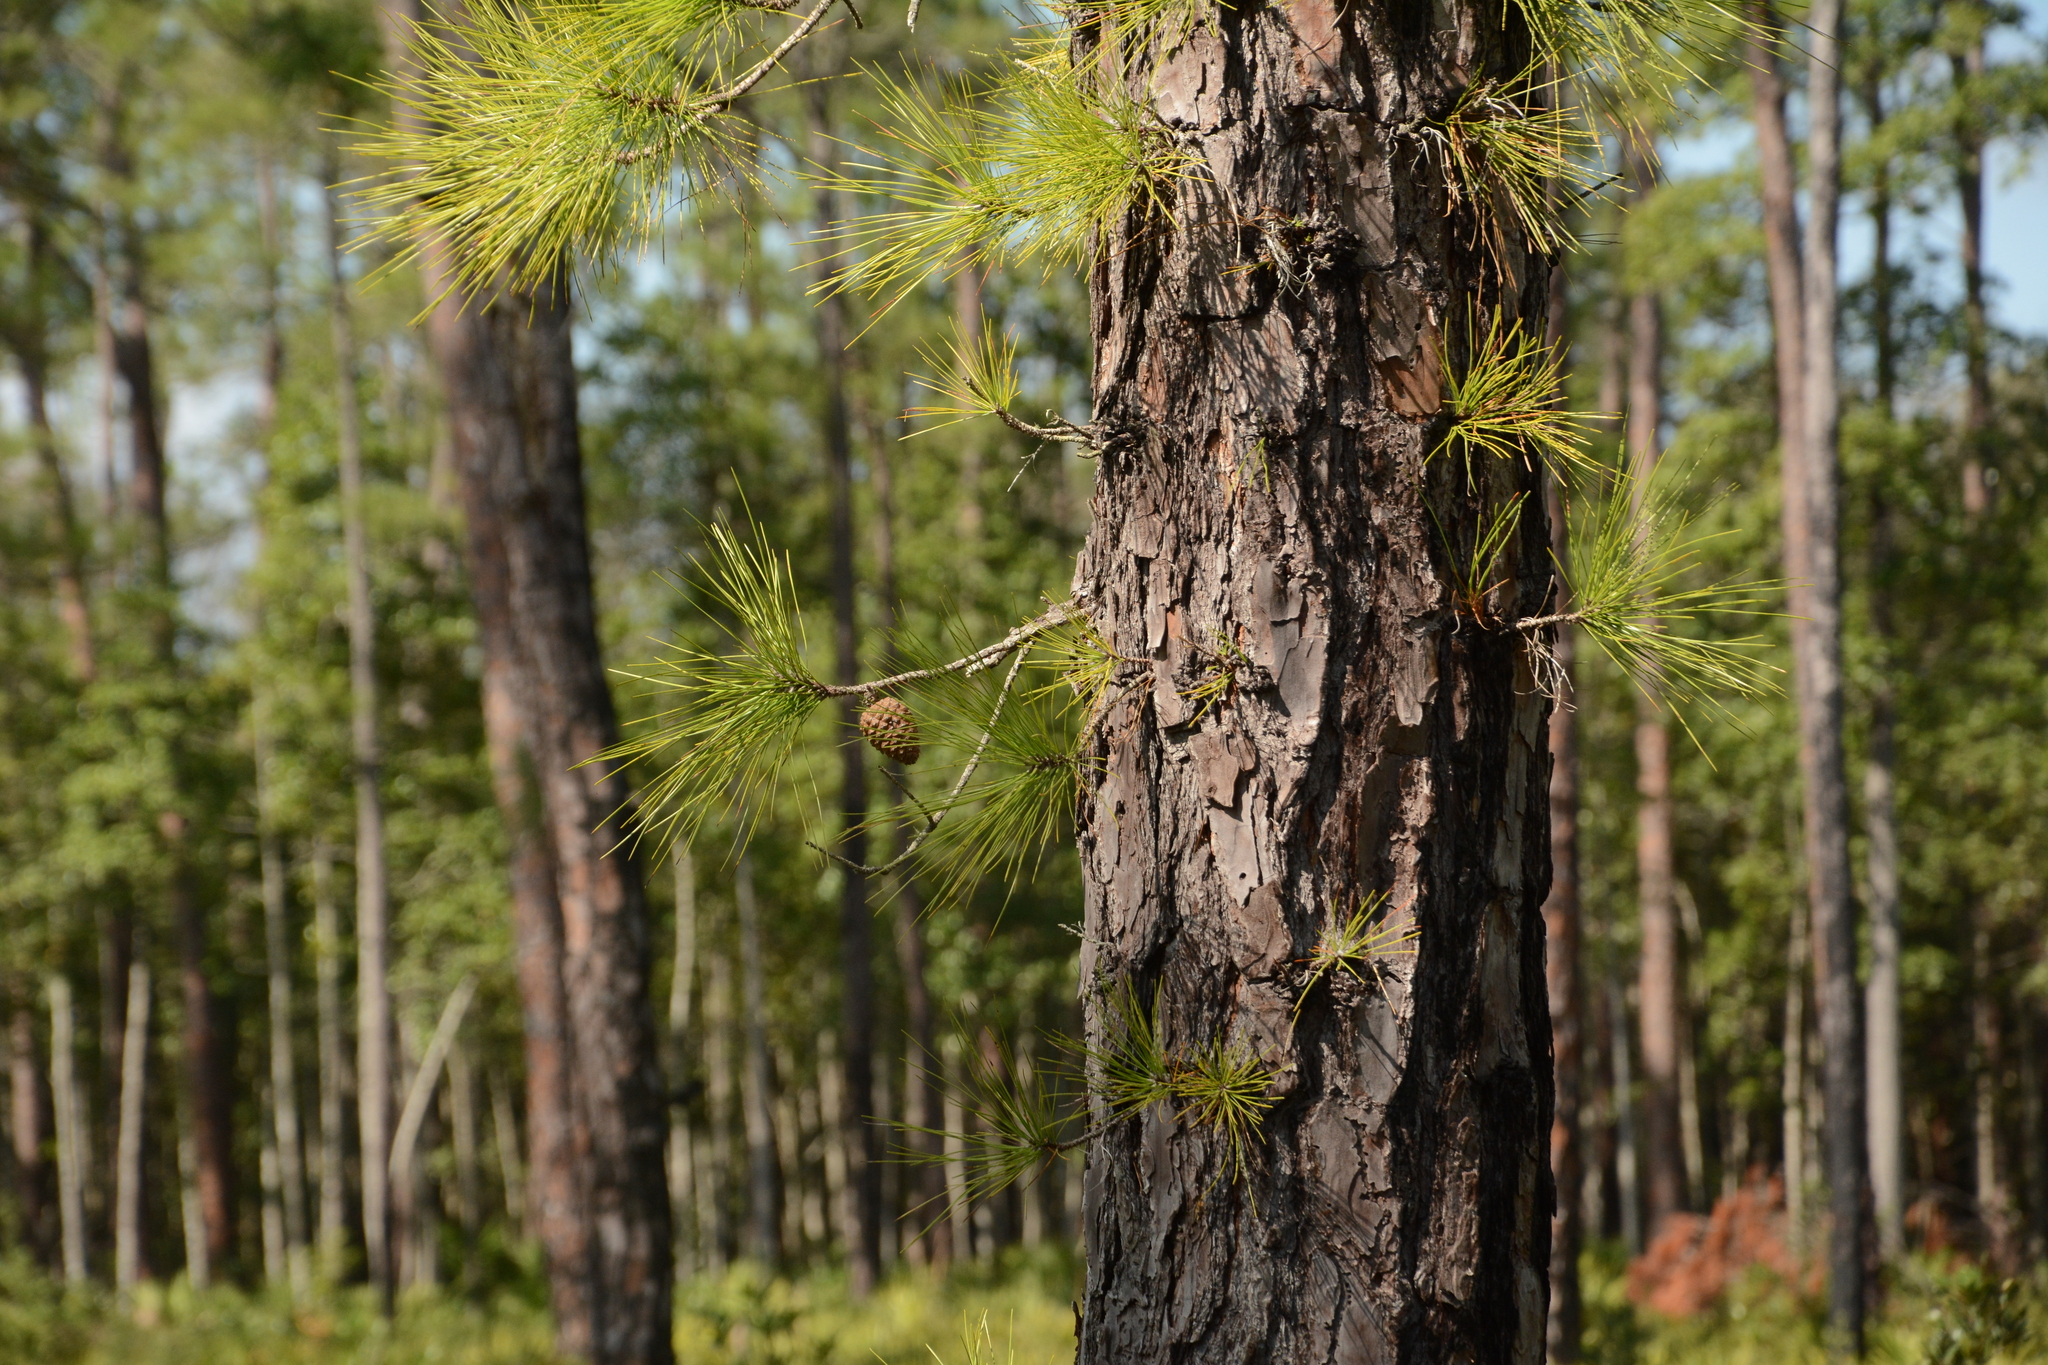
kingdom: Plantae
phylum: Tracheophyta
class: Pinopsida
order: Pinales
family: Pinaceae
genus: Pinus
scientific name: Pinus serotina
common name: Marsh pine
